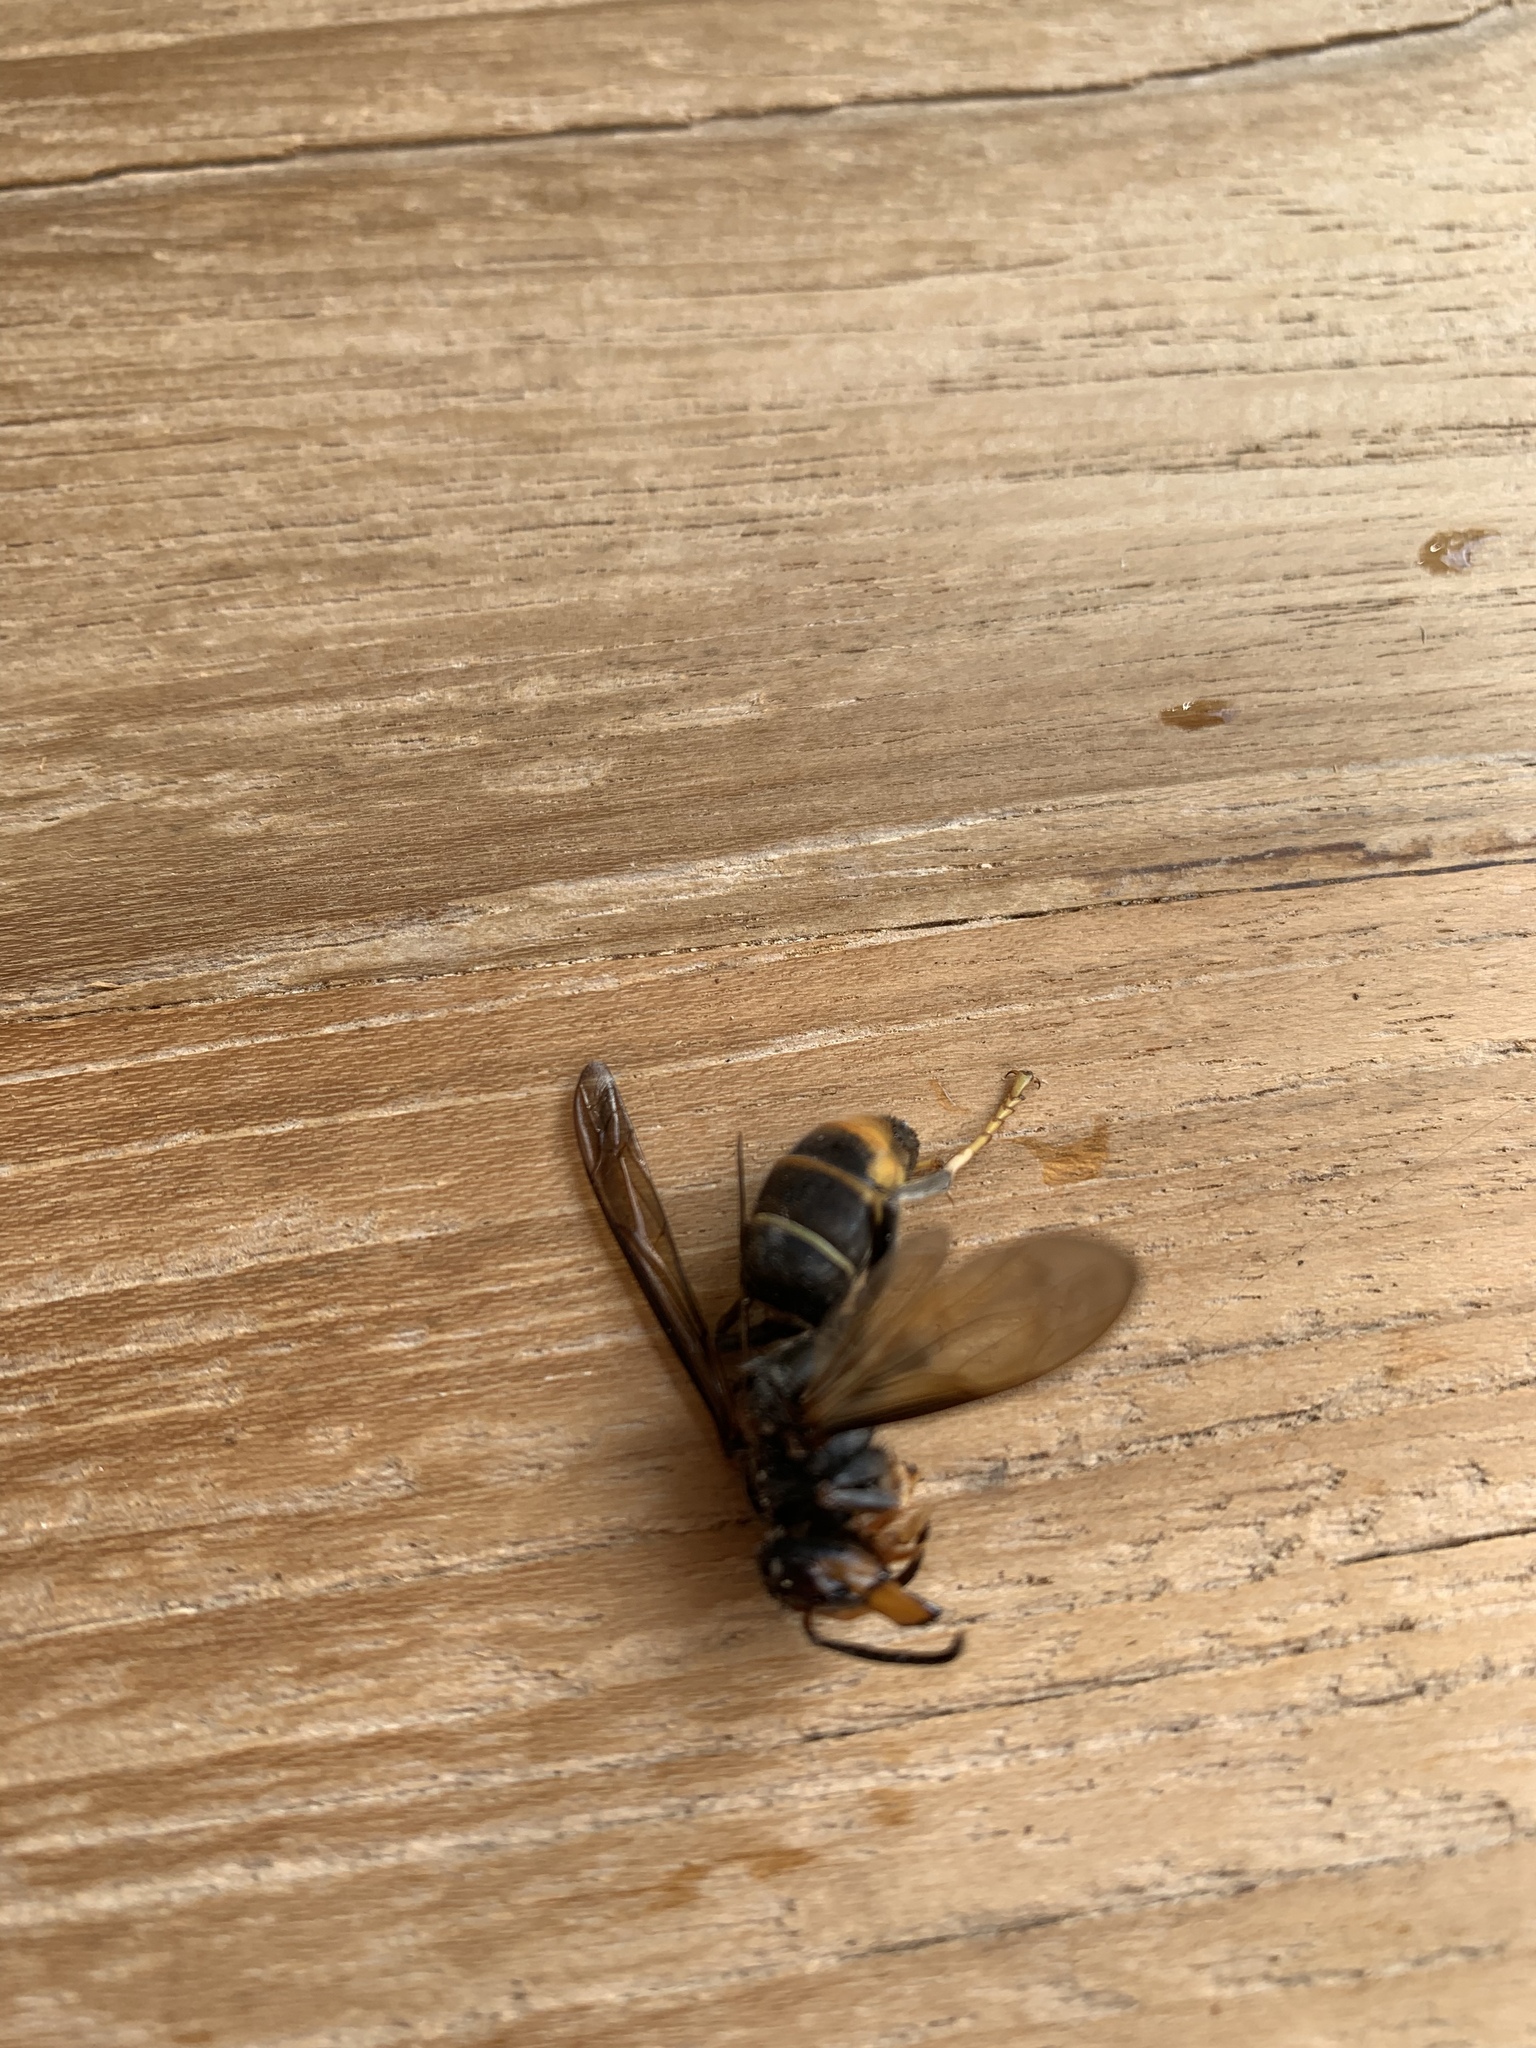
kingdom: Animalia
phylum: Arthropoda
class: Insecta
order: Hymenoptera
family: Vespidae
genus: Vespa
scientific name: Vespa velutina
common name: Asian hornet
